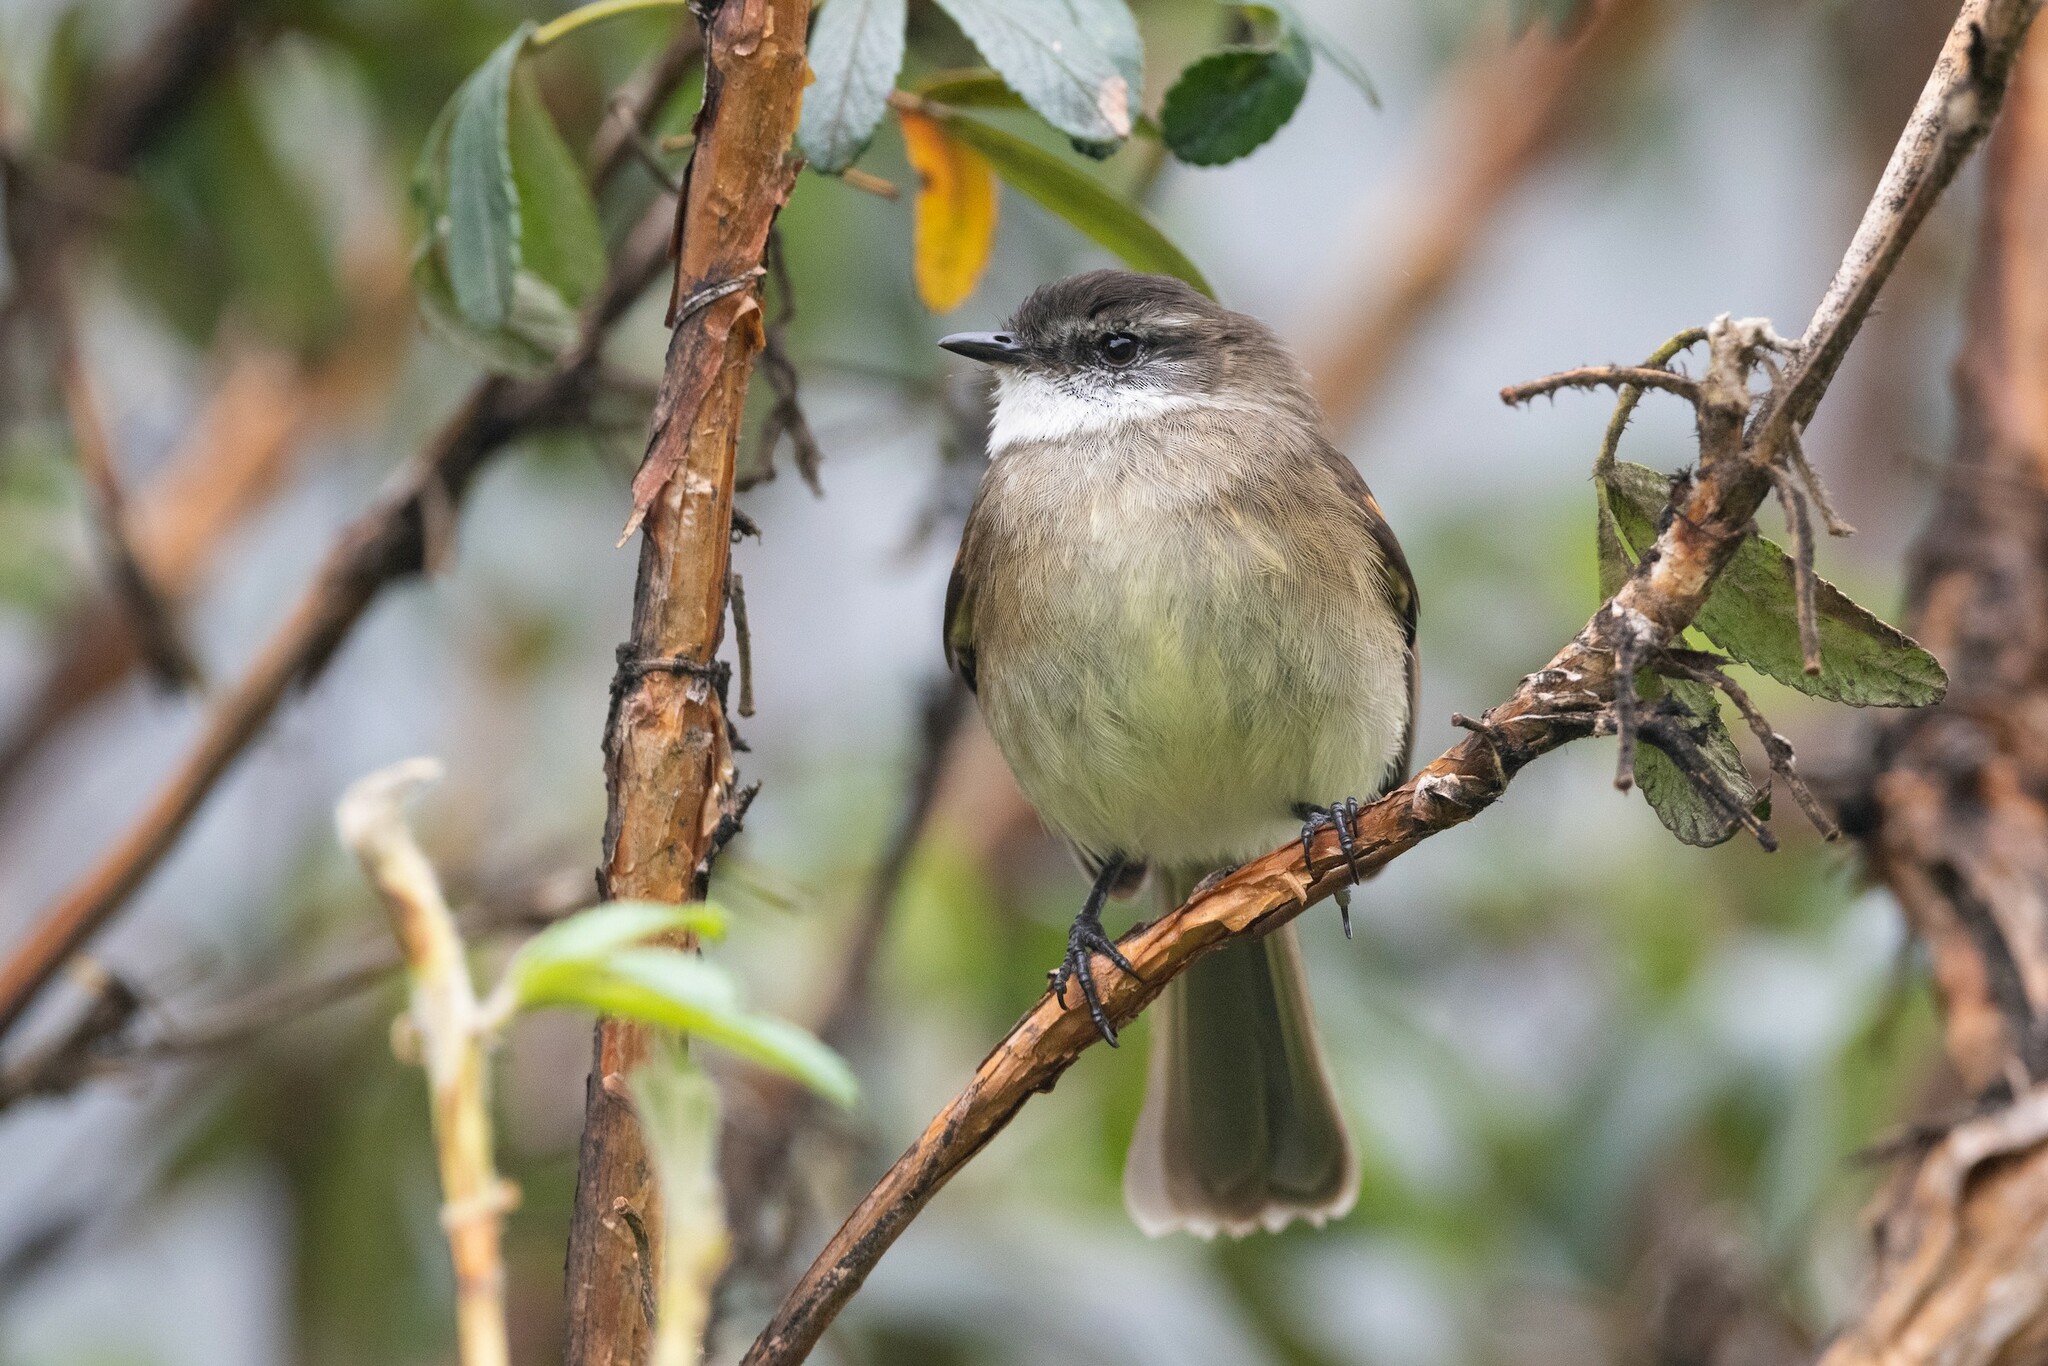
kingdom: Animalia
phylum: Chordata
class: Aves
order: Passeriformes
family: Tyrannidae
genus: Mecocerculus
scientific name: Mecocerculus leucophrys
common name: White-throated tyrannulet
